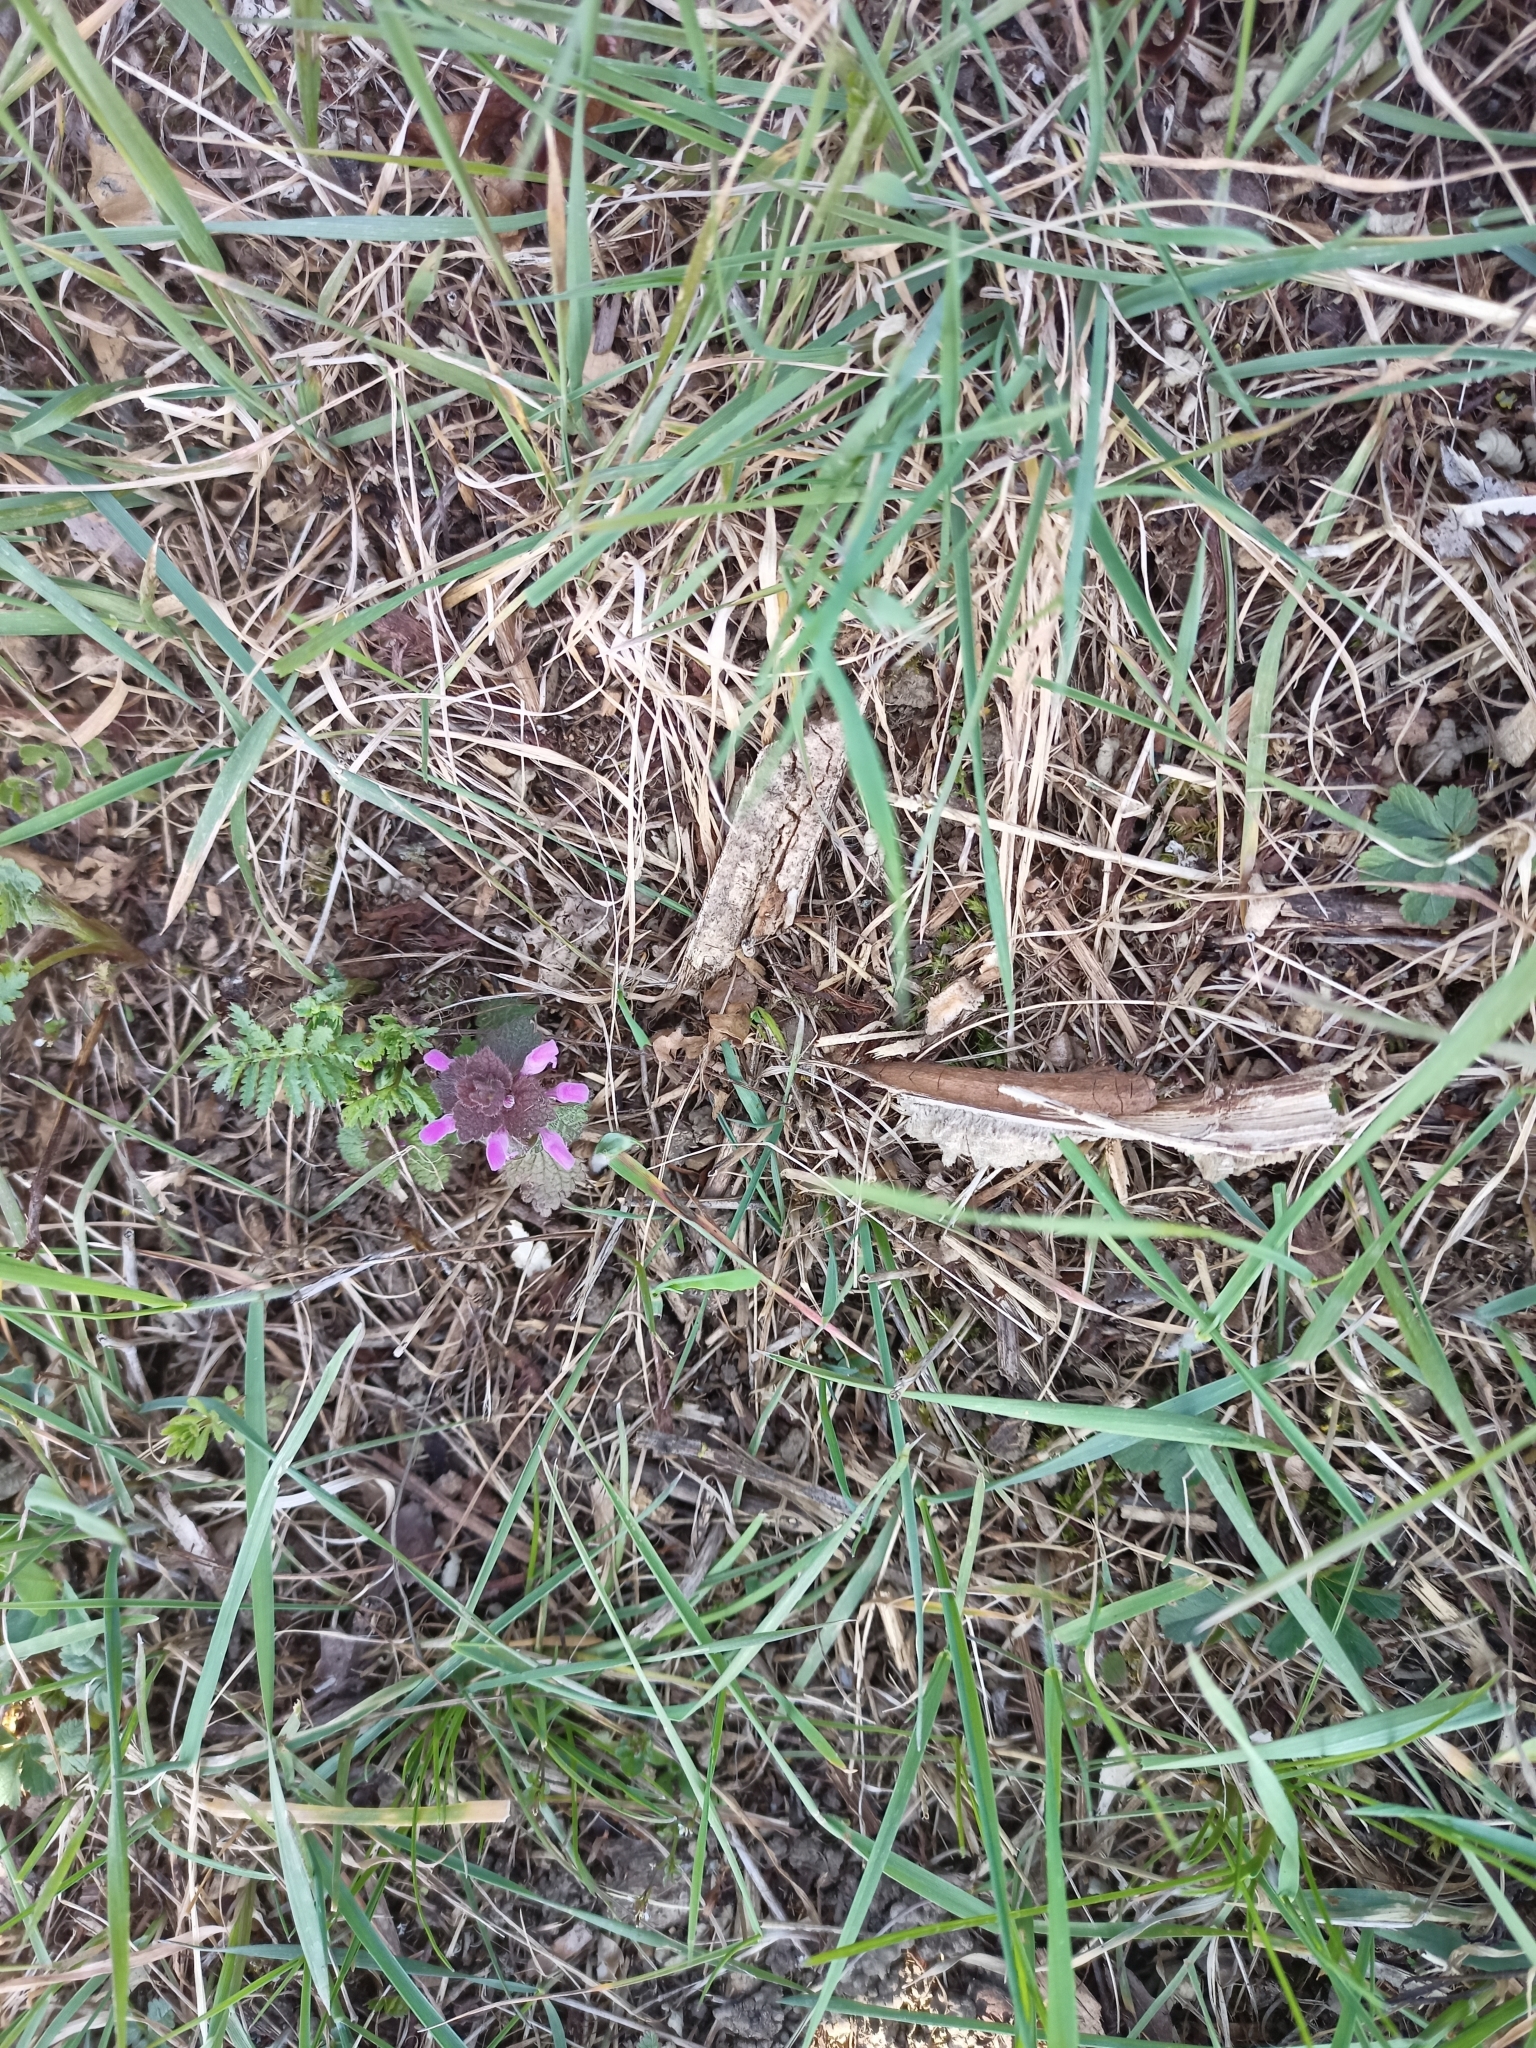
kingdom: Plantae
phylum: Tracheophyta
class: Magnoliopsida
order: Lamiales
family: Lamiaceae
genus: Lamium
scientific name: Lamium purpureum
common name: Red dead-nettle
